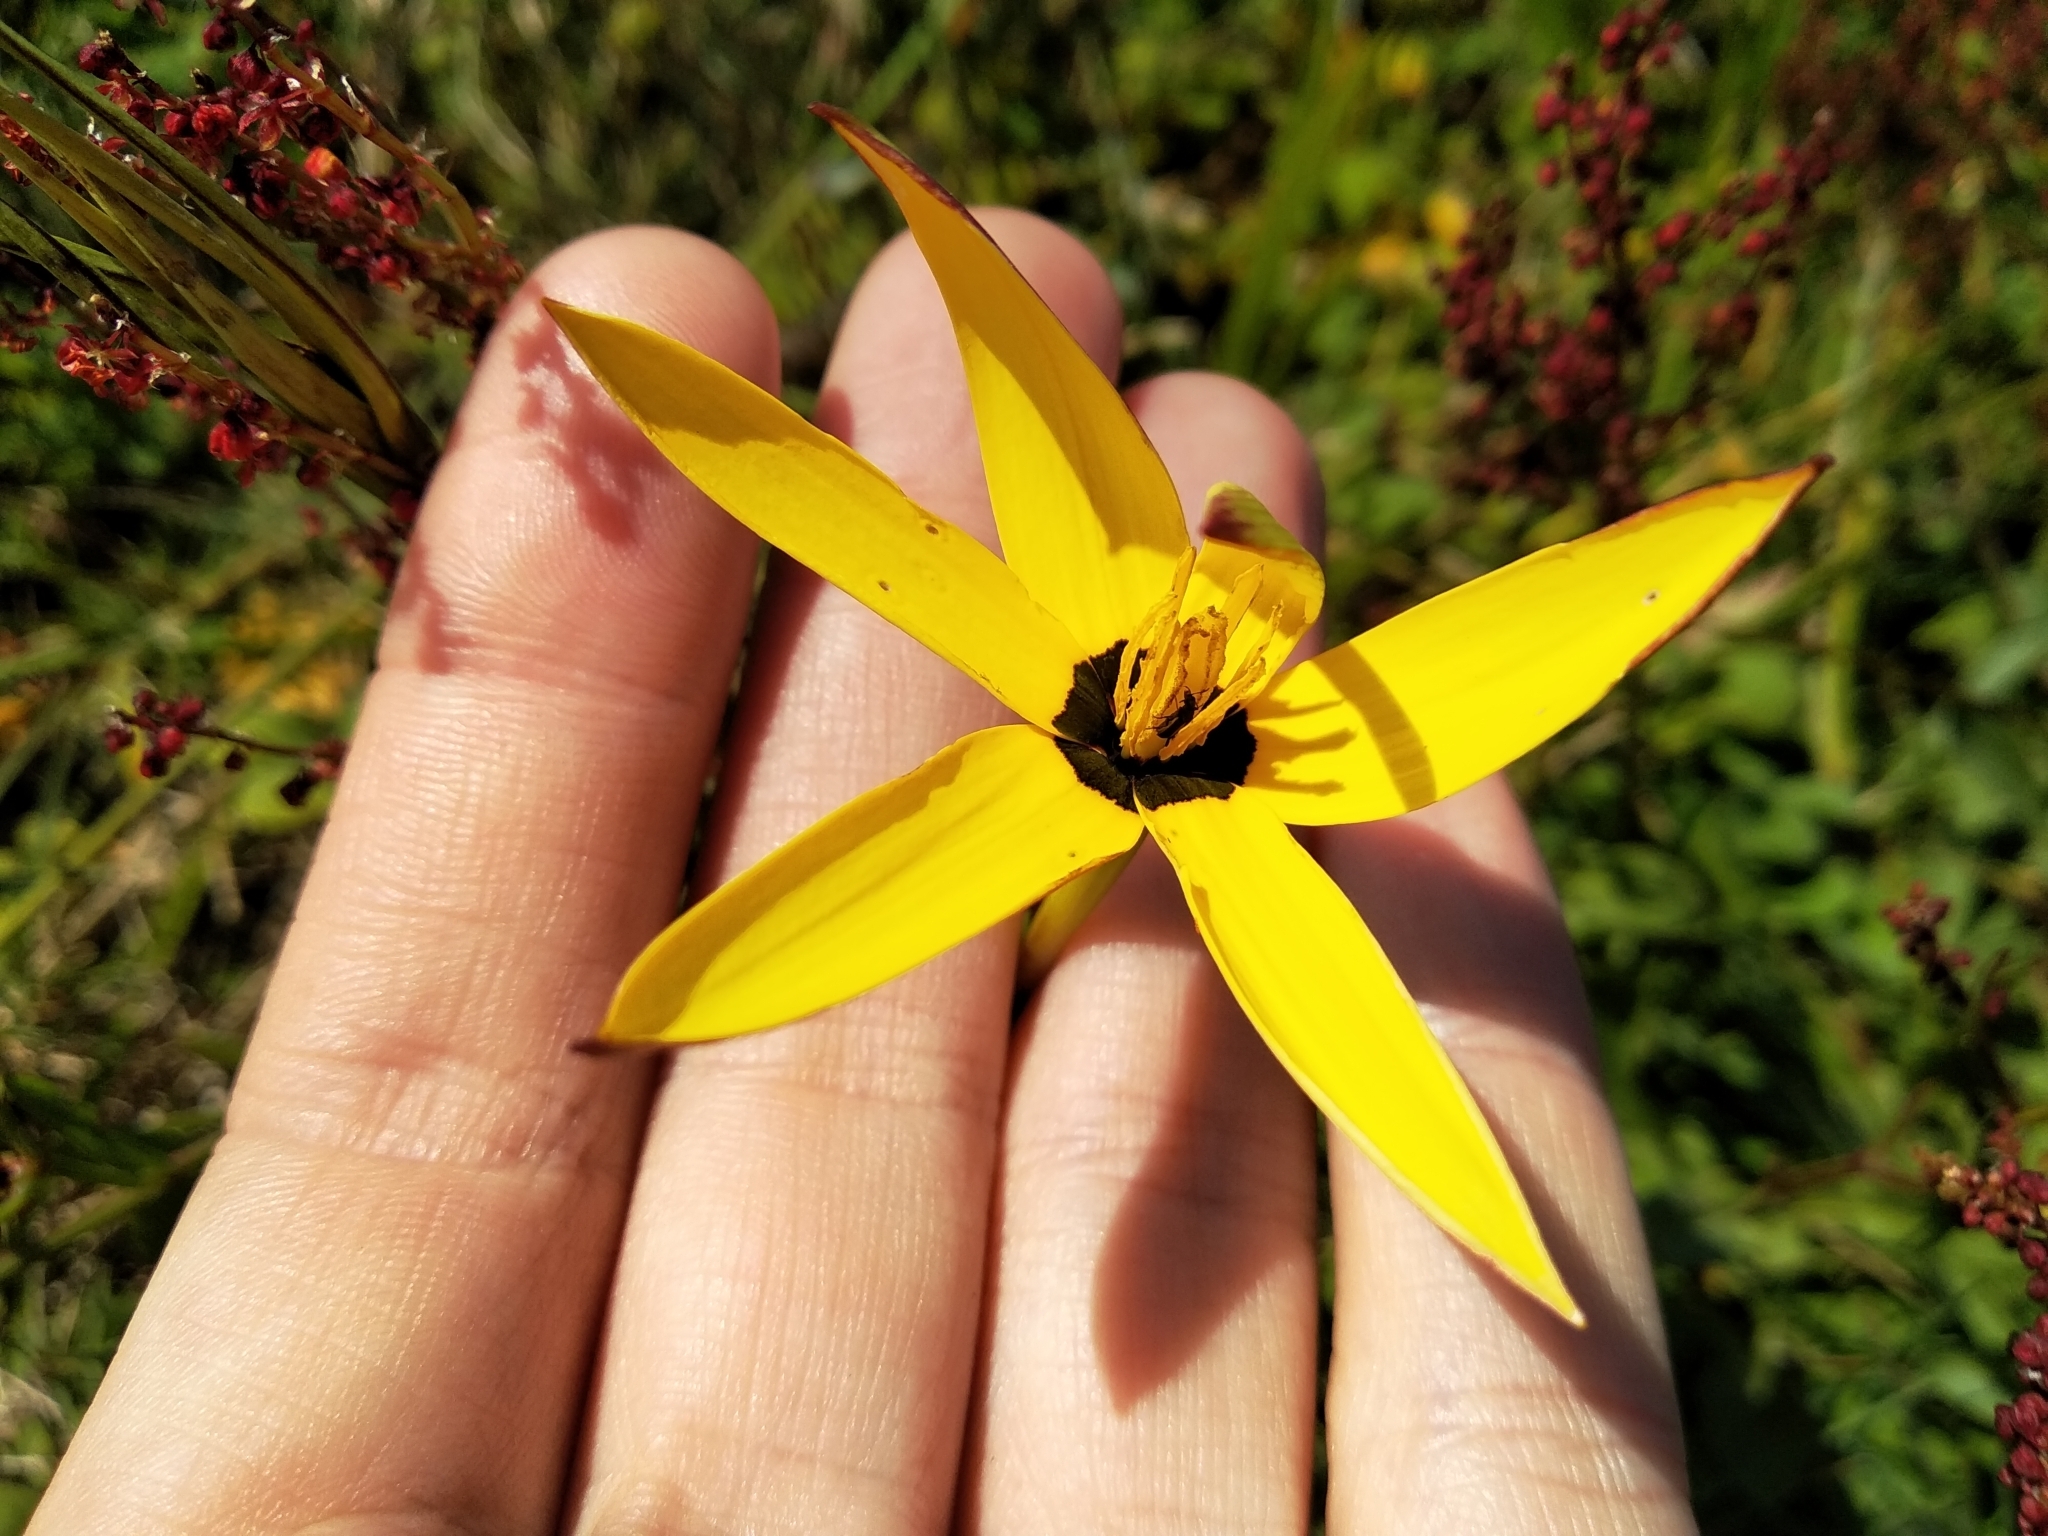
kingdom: Plantae
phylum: Tracheophyta
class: Liliopsida
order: Asparagales
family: Hypoxidaceae
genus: Pauridia
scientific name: Pauridia capensis
